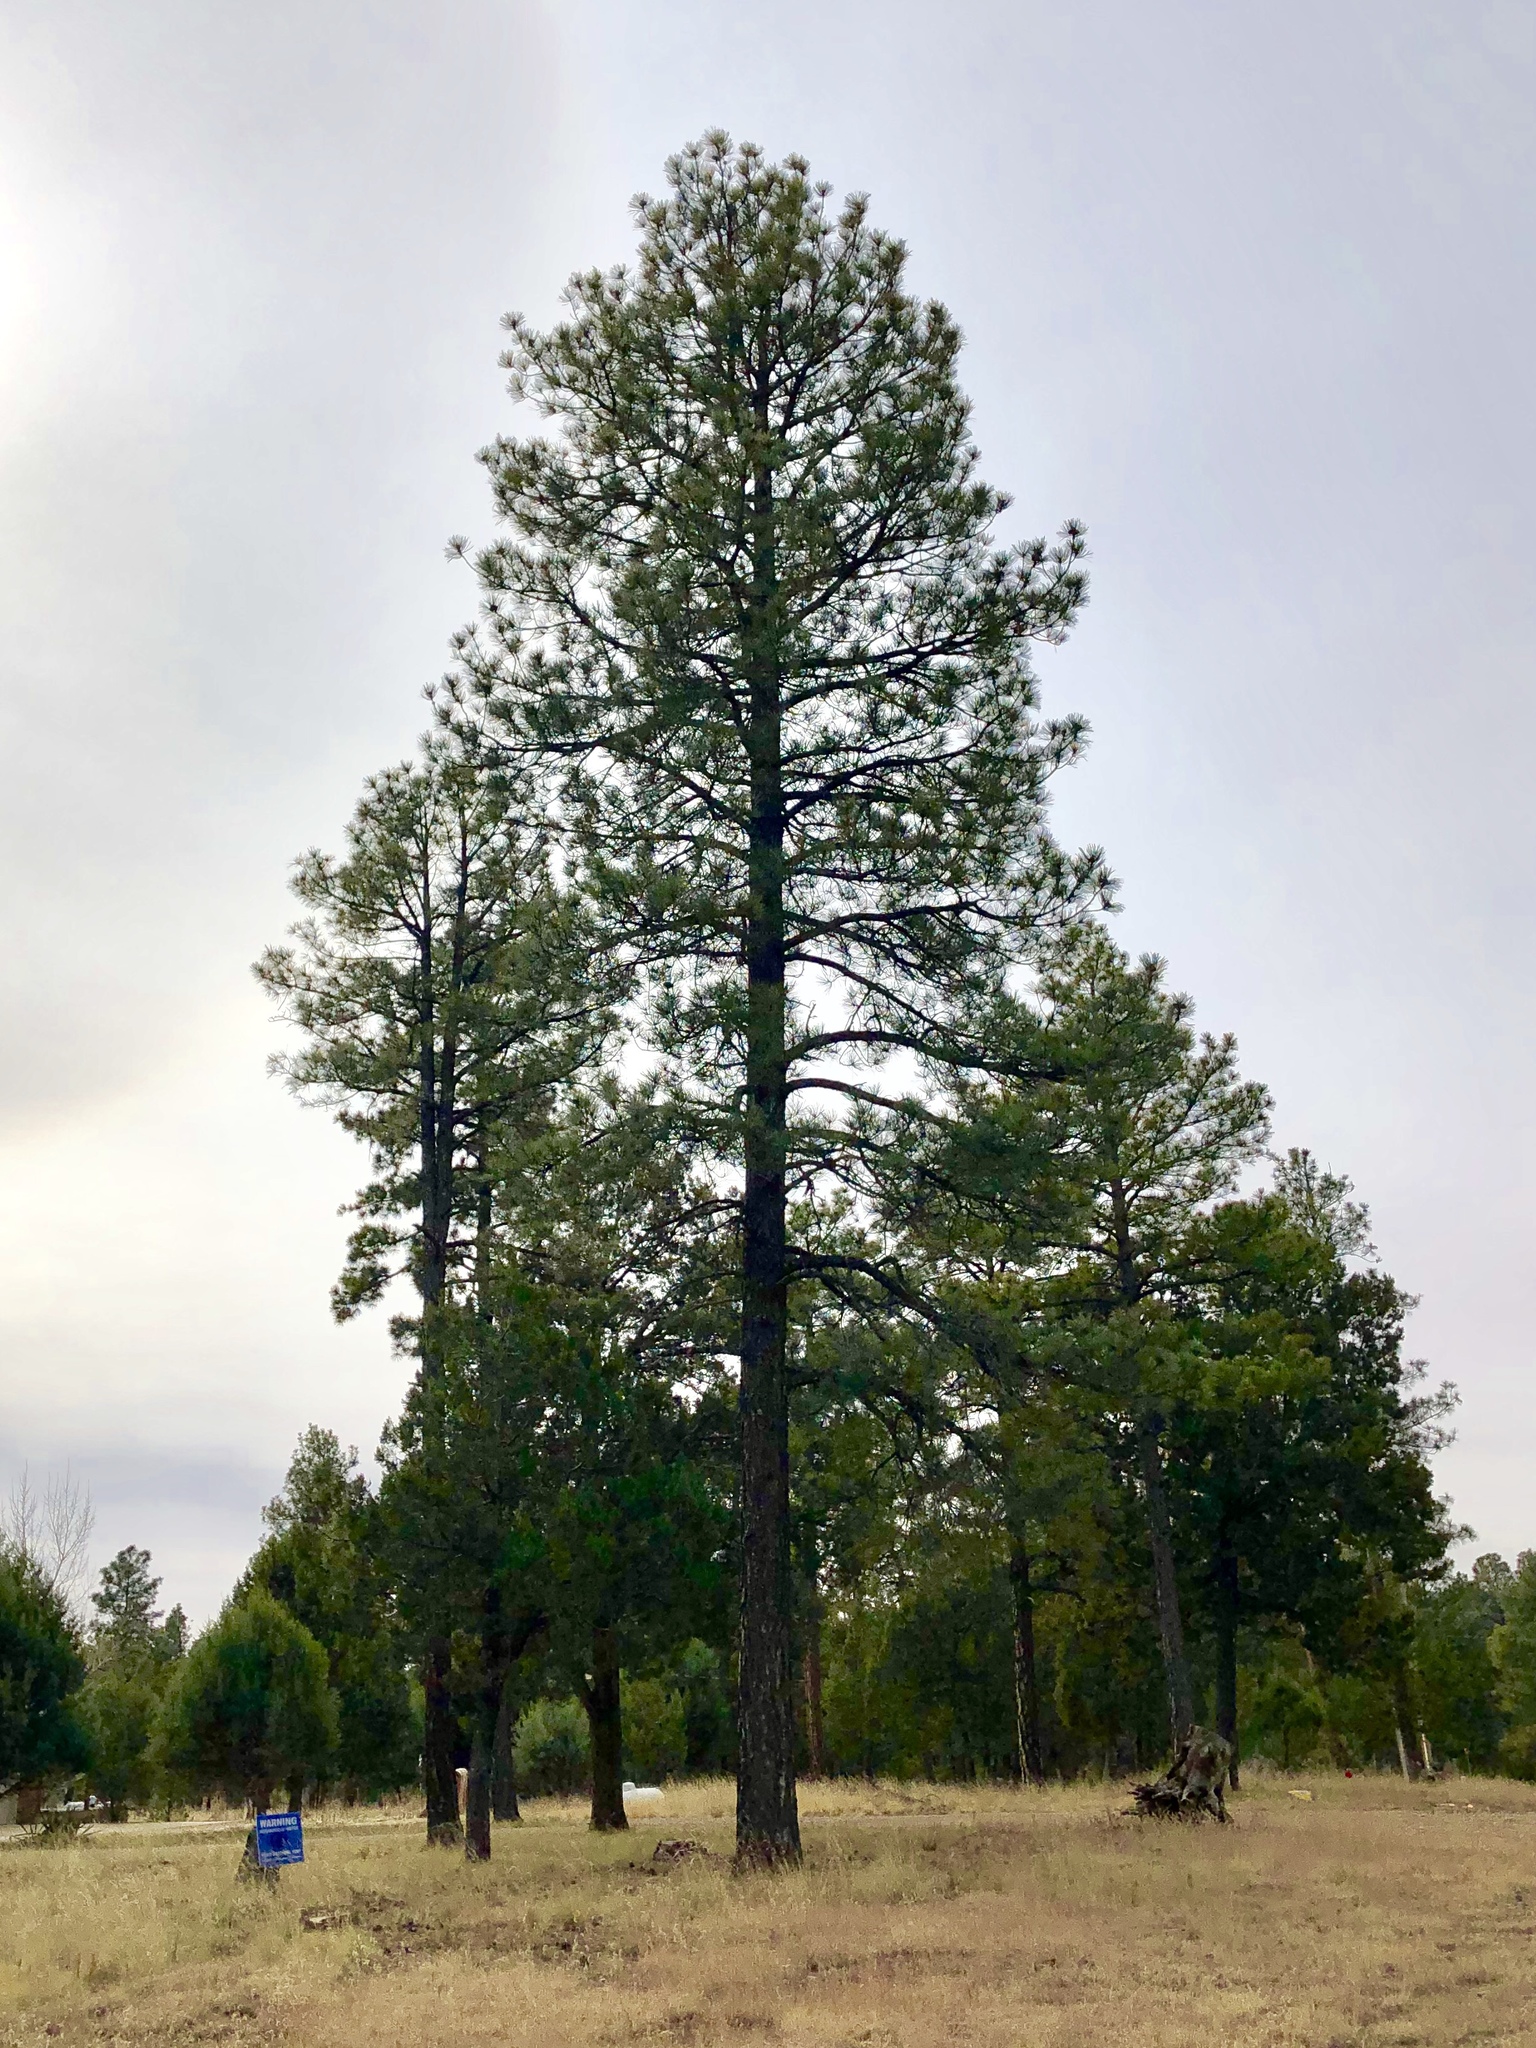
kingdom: Plantae
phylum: Tracheophyta
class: Pinopsida
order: Pinales
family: Pinaceae
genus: Pinus
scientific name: Pinus ponderosa
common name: Western yellow-pine
